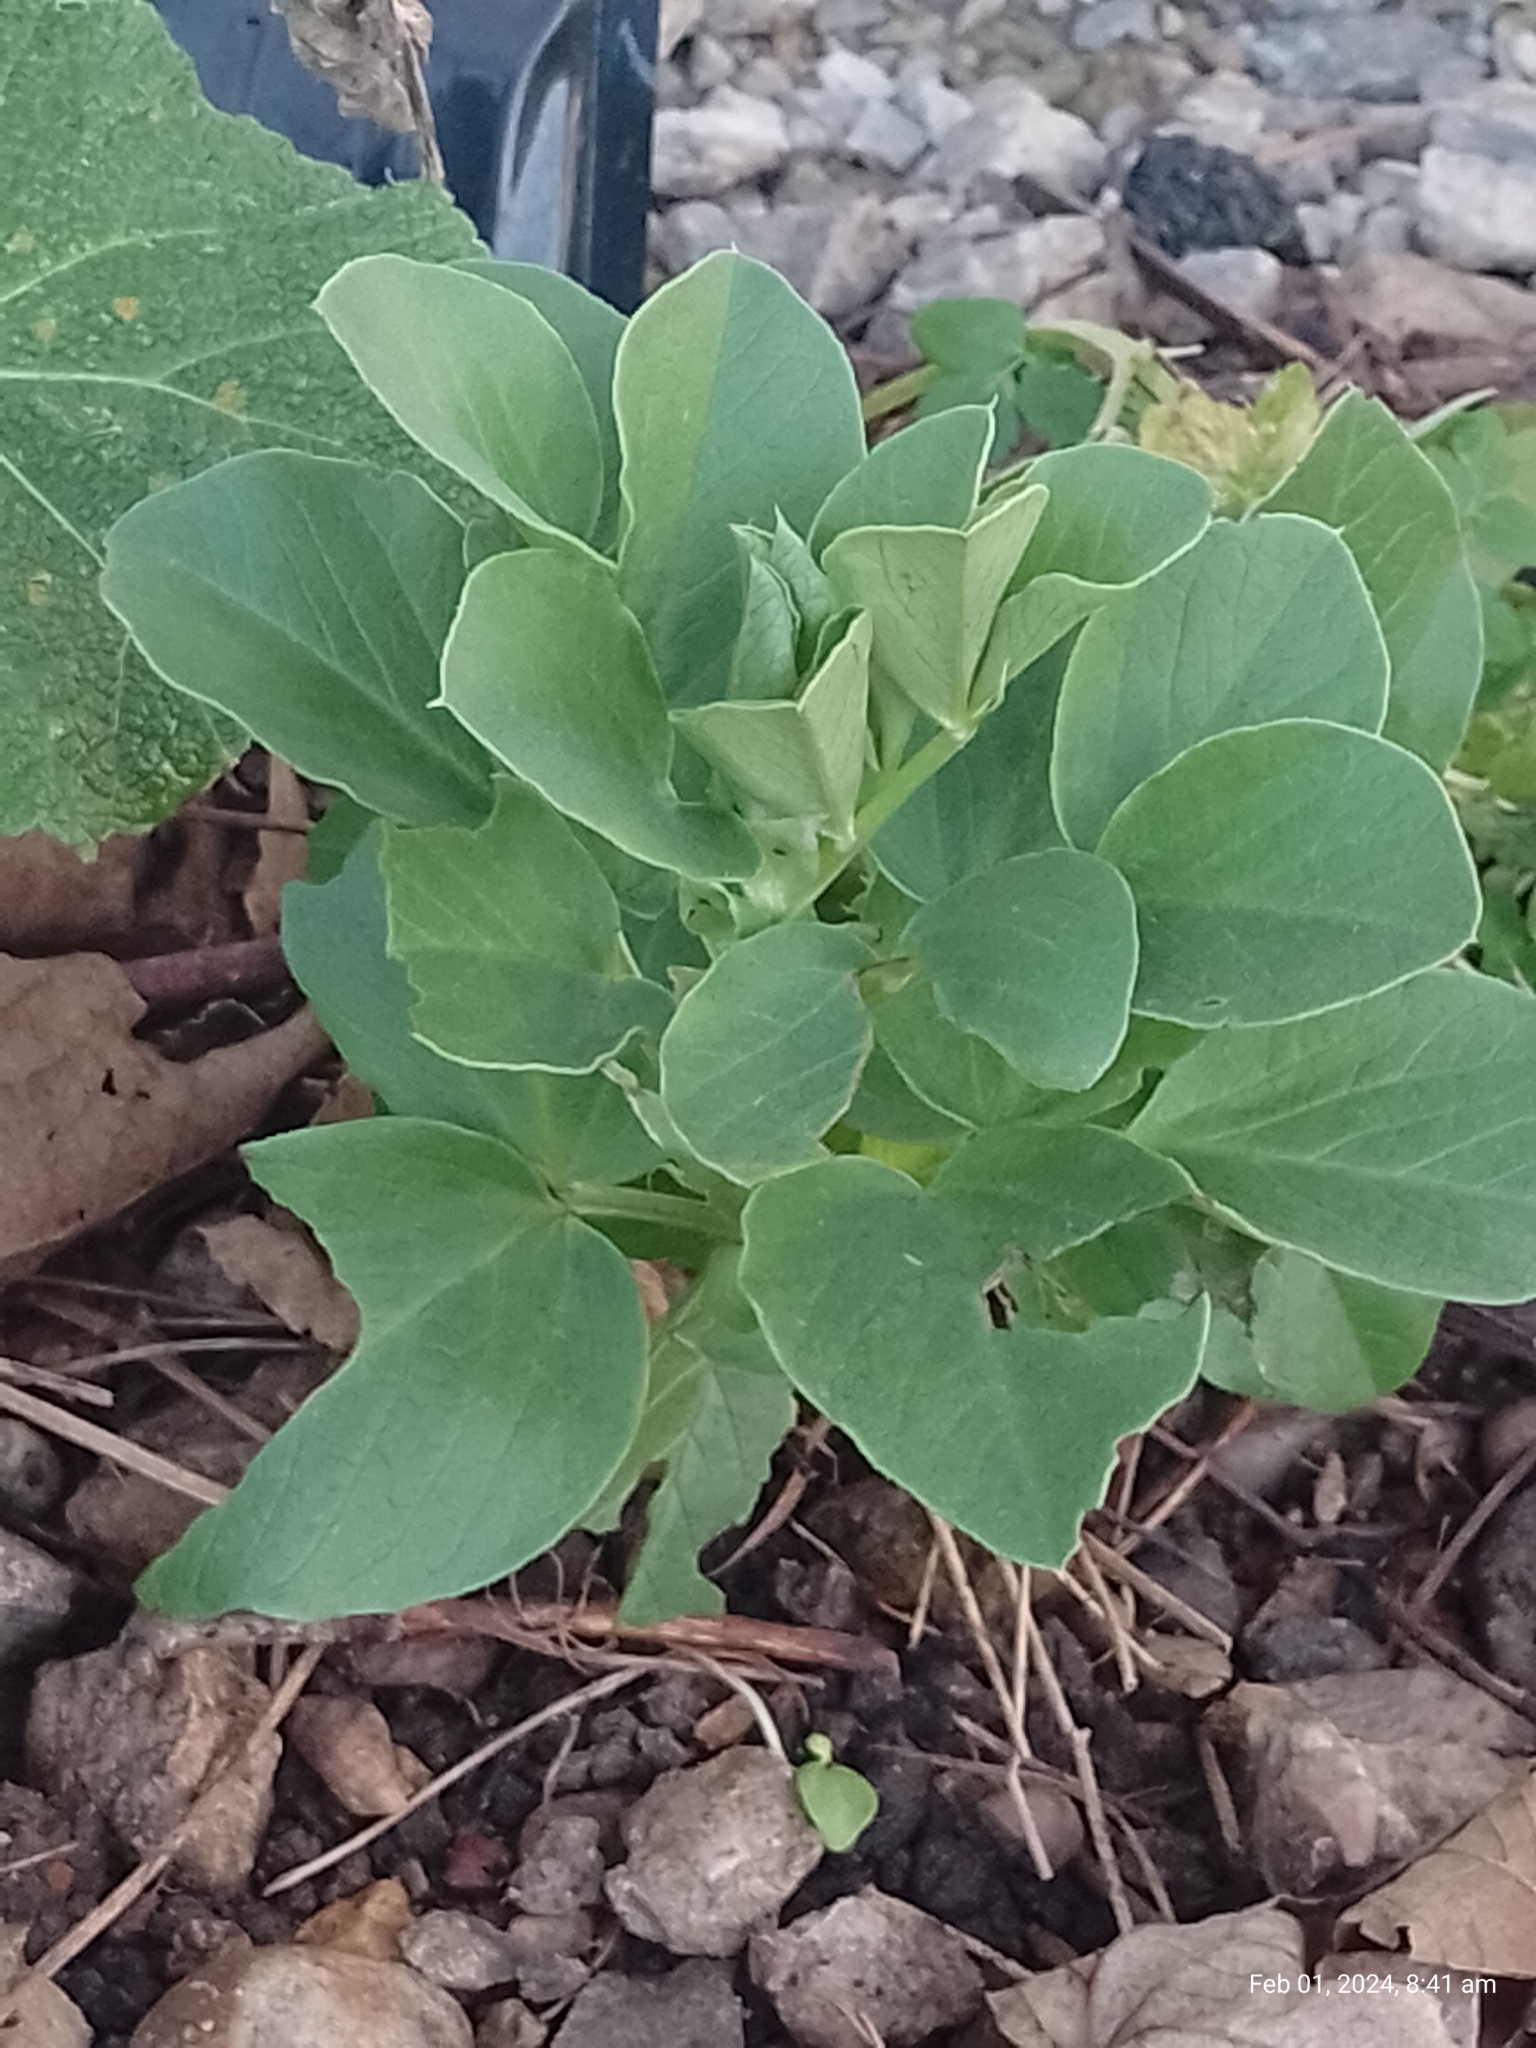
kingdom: Plantae
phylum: Tracheophyta
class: Magnoliopsida
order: Fabales
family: Fabaceae
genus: Vicia
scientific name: Vicia faba
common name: Broad bean
